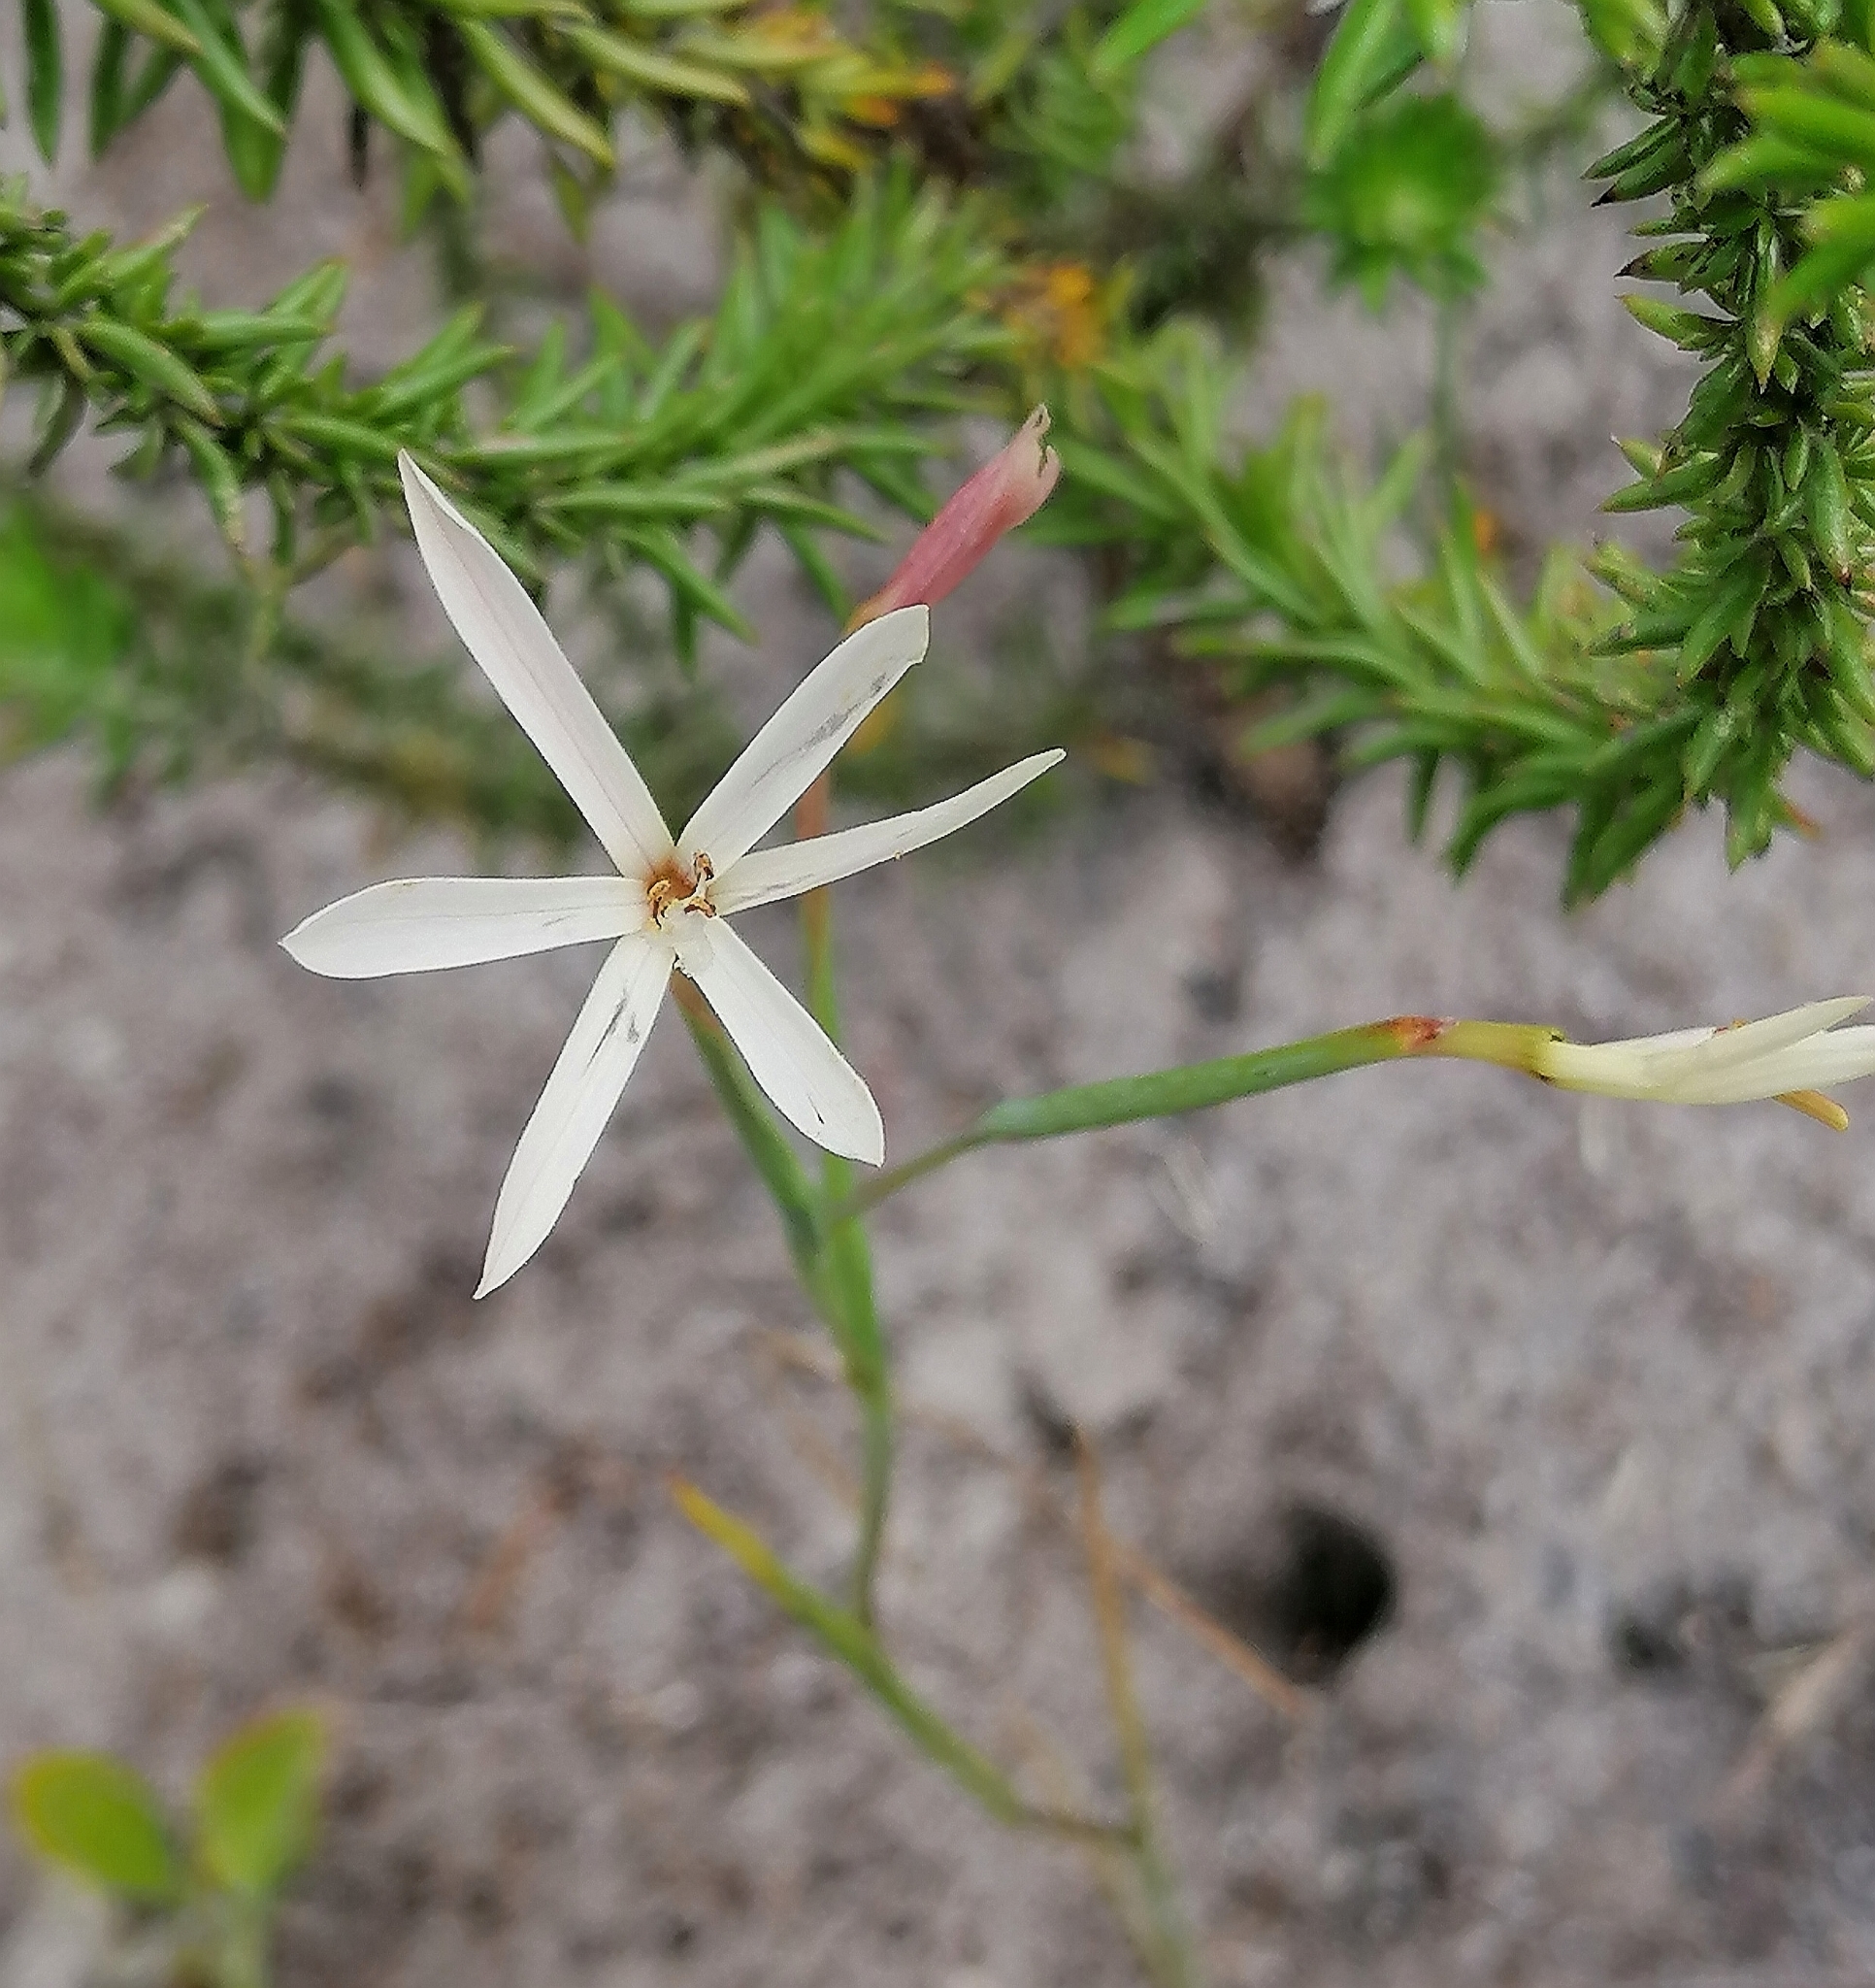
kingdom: Plantae
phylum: Tracheophyta
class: Liliopsida
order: Asparagales
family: Iridaceae
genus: Geissorhiza
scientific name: Geissorhiza tenella
